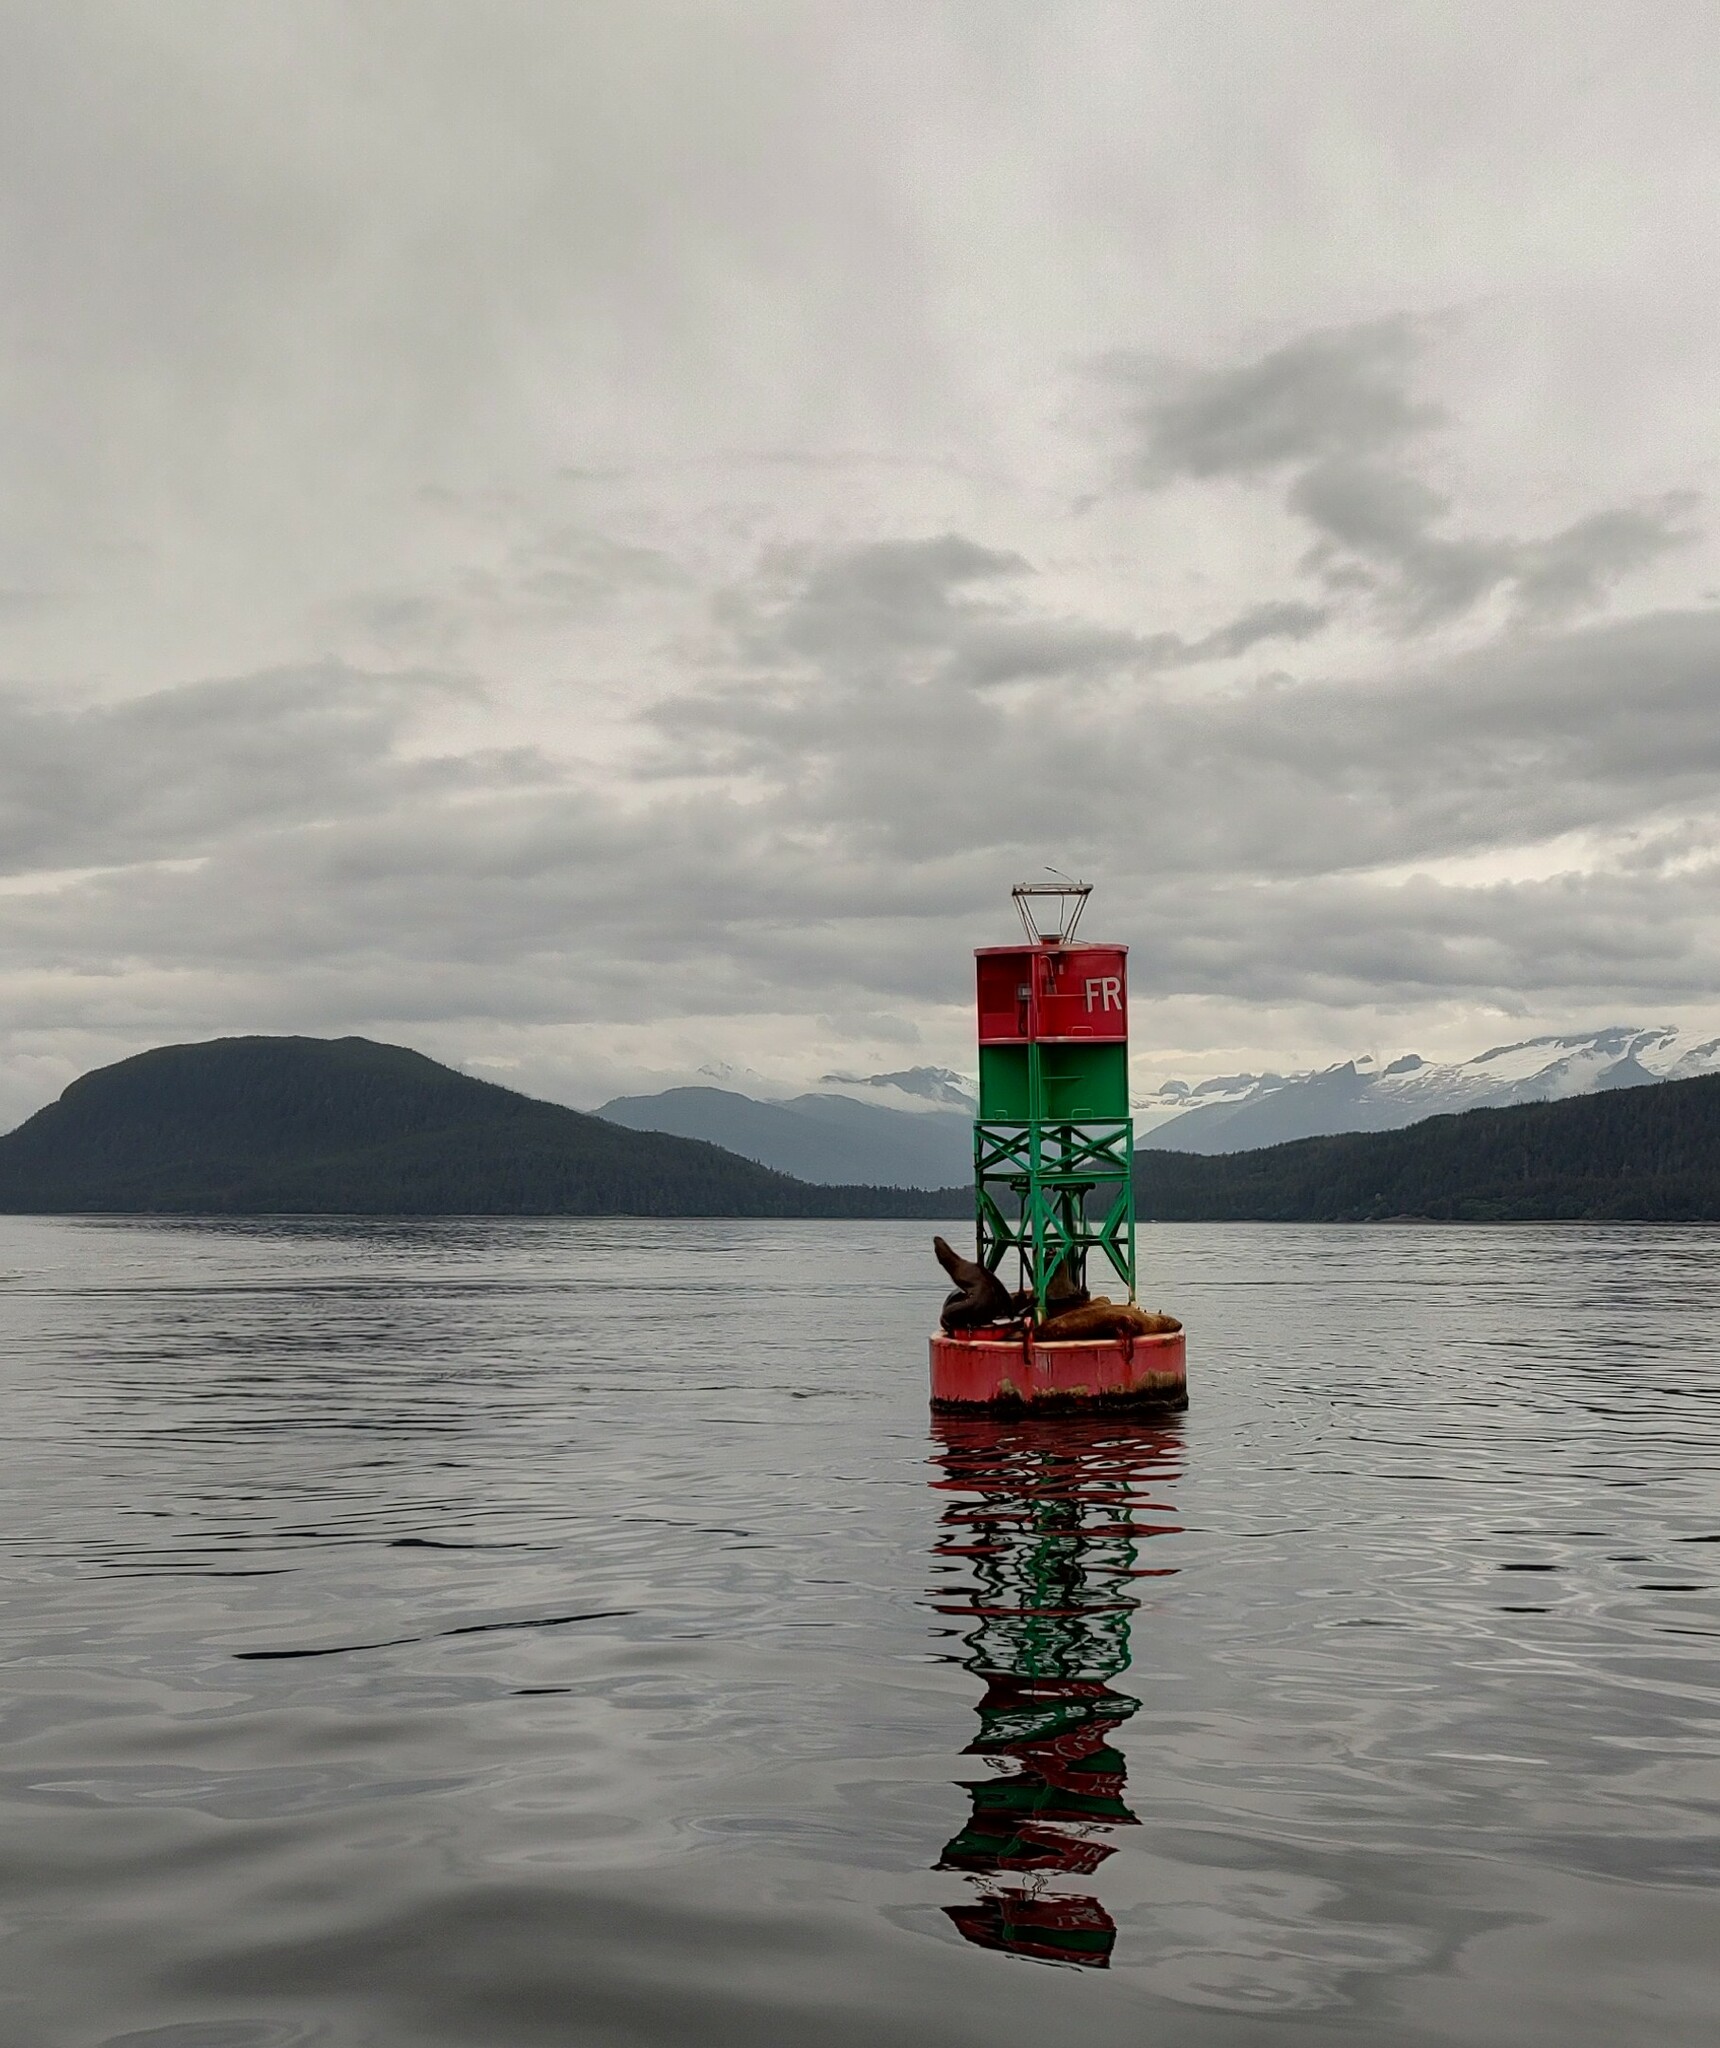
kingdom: Animalia
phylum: Chordata
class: Mammalia
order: Carnivora
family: Otariidae
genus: Eumetopias
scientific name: Eumetopias jubatus
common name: Steller sea lion
